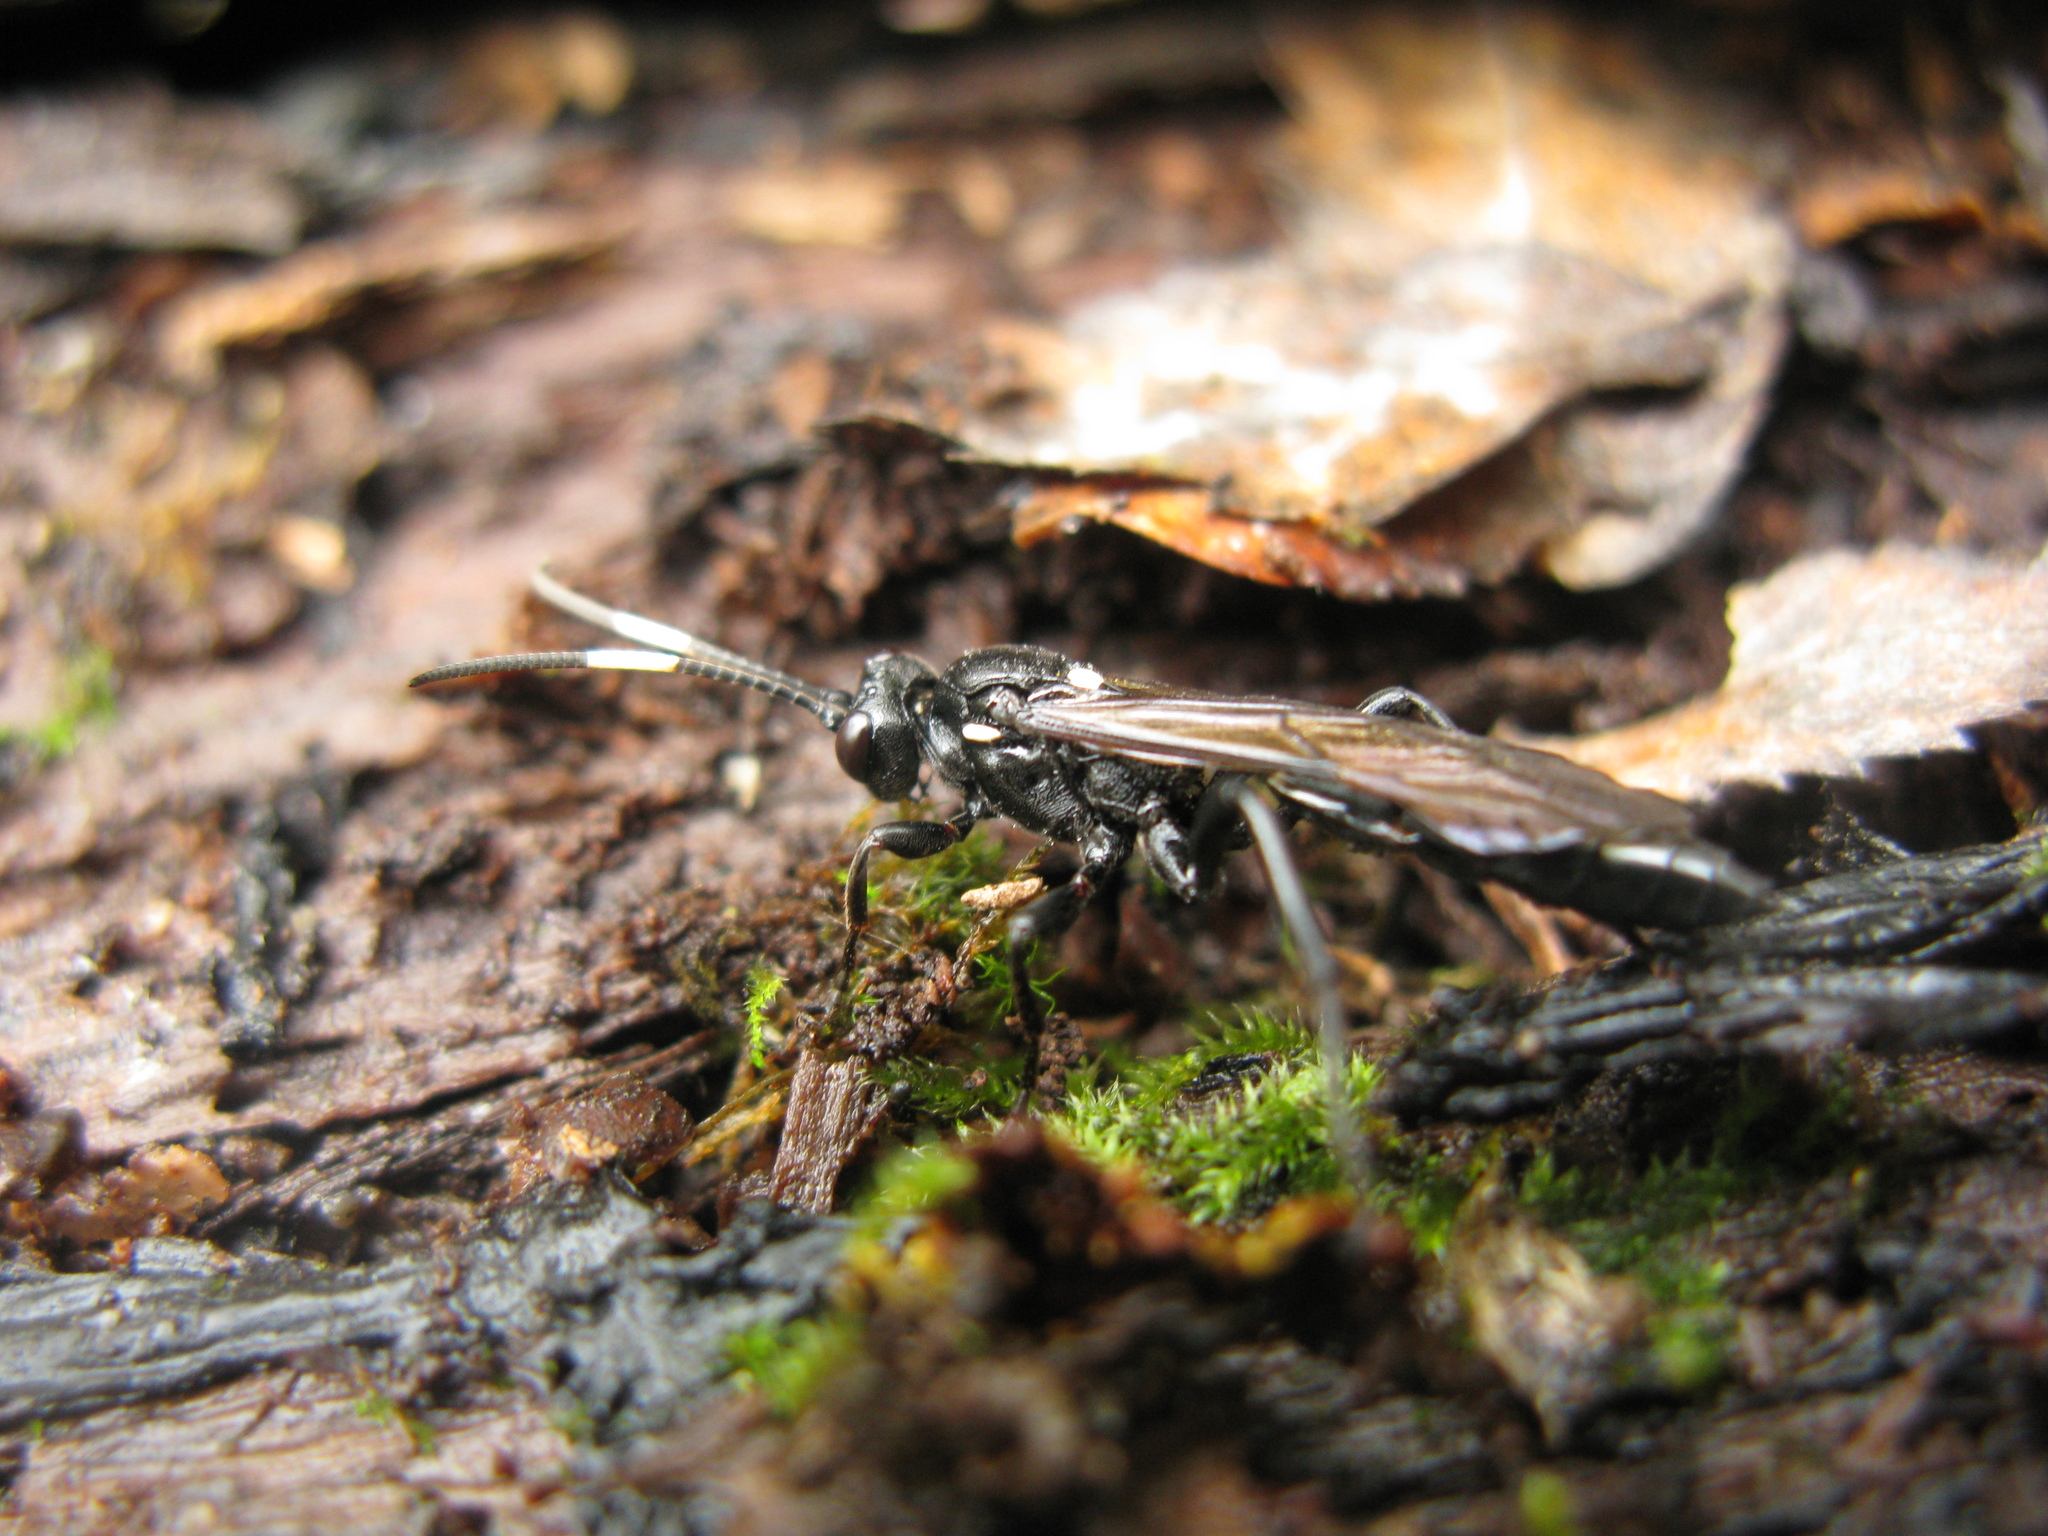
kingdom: Animalia
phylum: Arthropoda
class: Insecta
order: Hymenoptera
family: Ichneumonidae
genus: Ichneumon
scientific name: Ichneumon lugens
